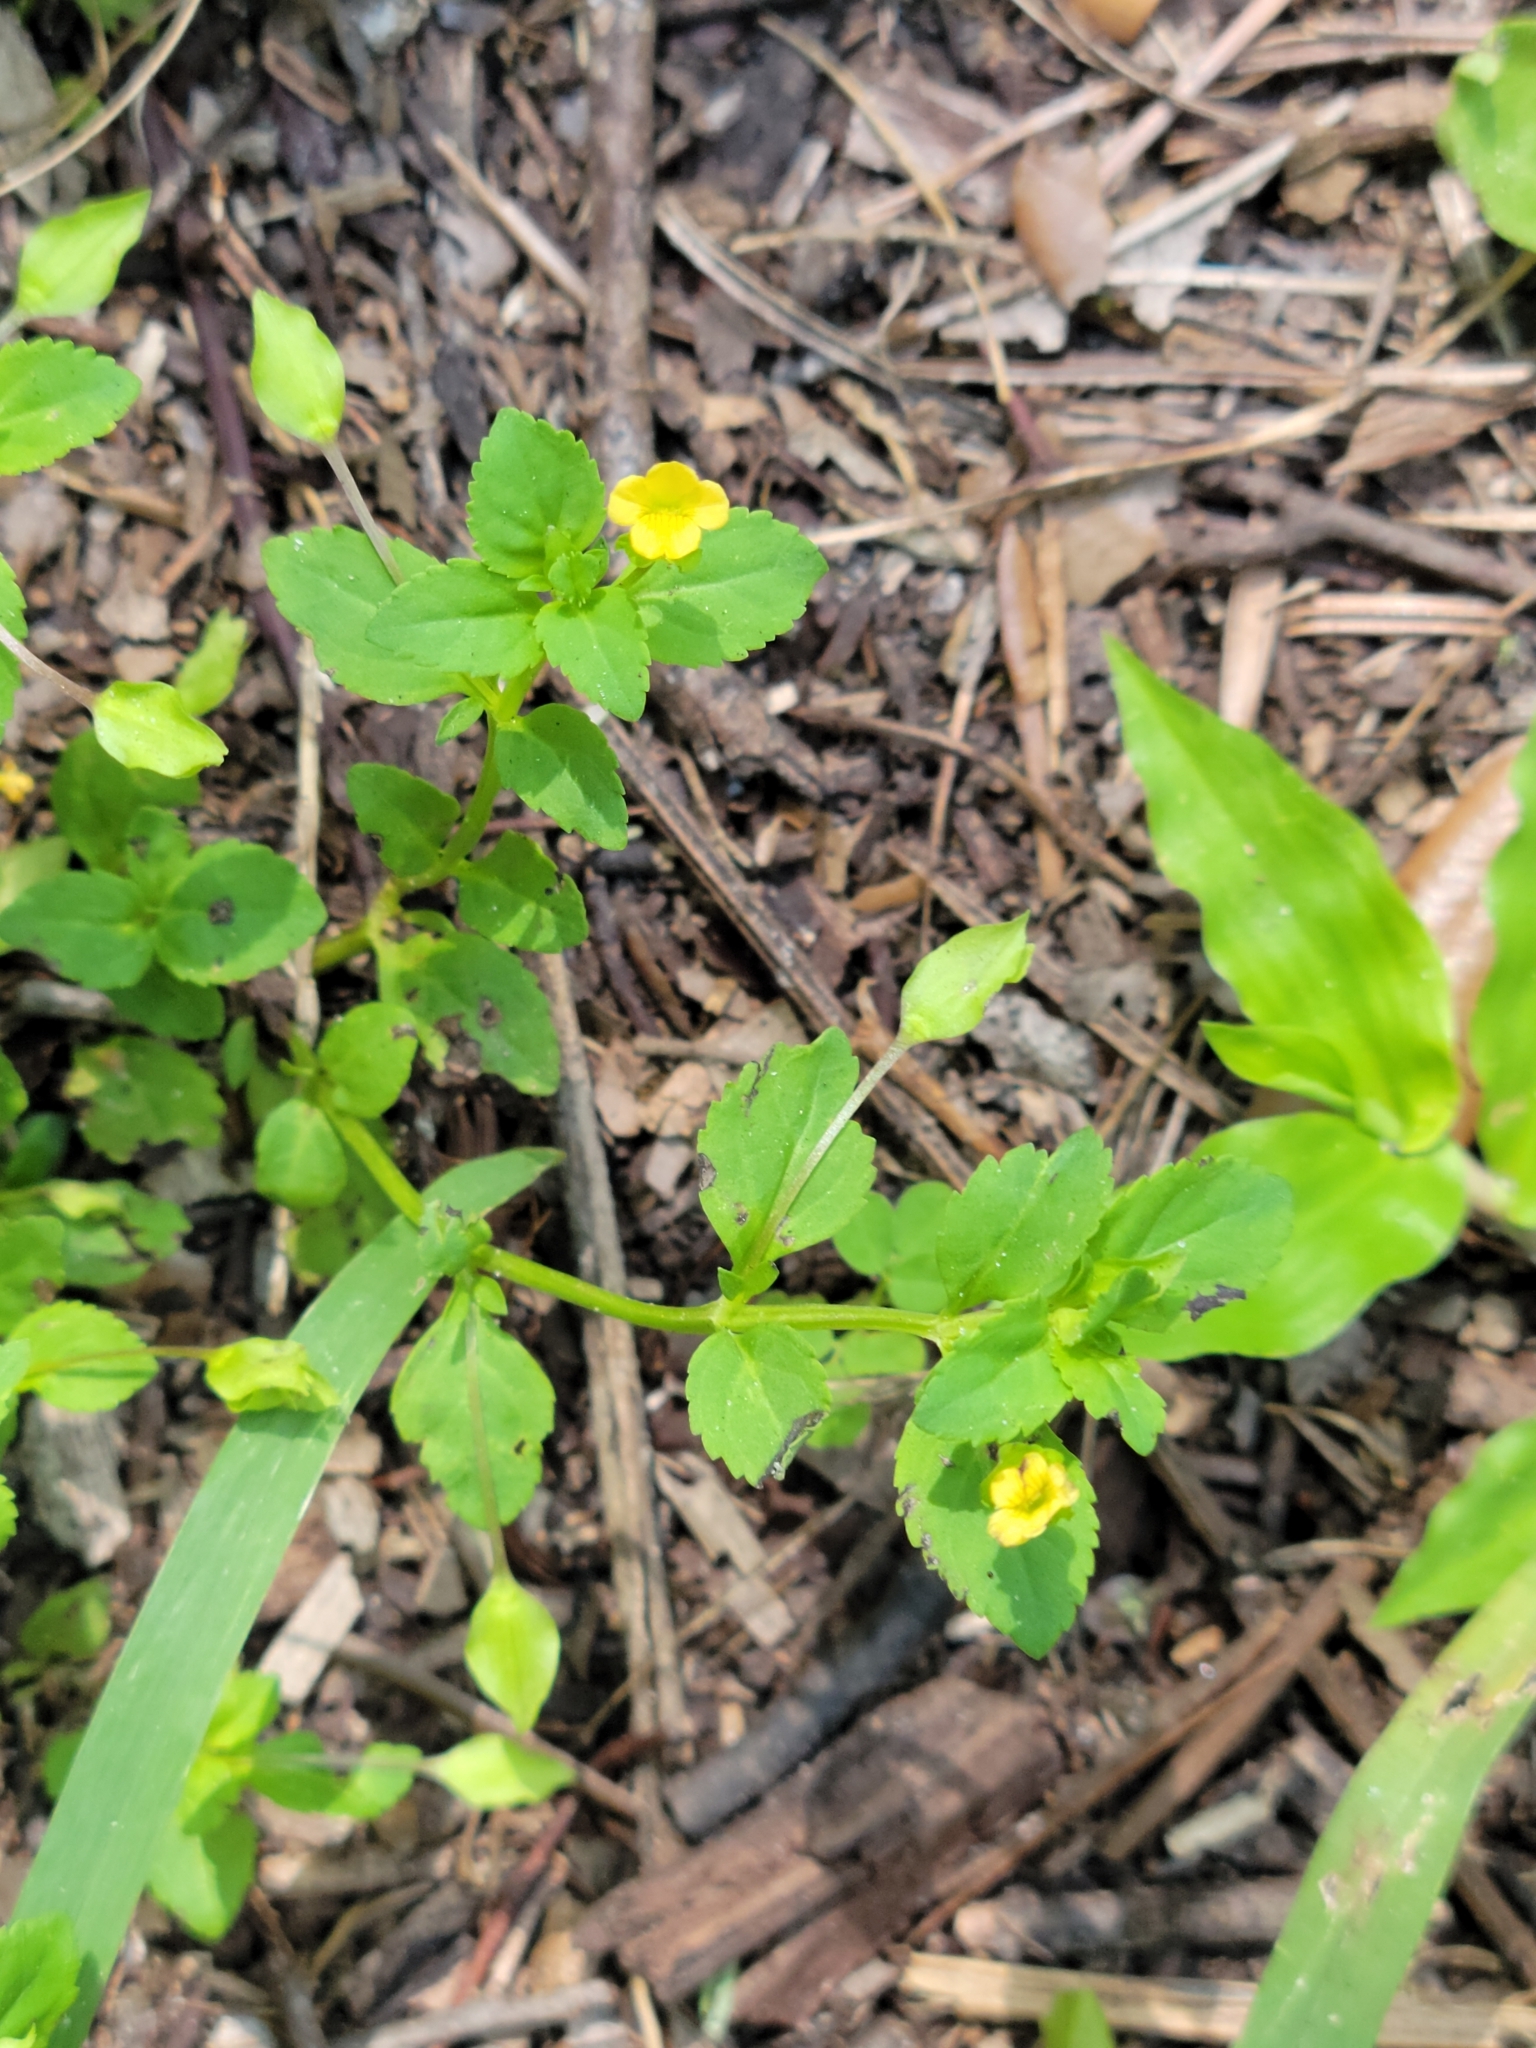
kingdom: Plantae
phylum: Tracheophyta
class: Magnoliopsida
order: Lamiales
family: Plantaginaceae
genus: Mecardonia
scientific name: Mecardonia procumbens
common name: Baby jump-up
